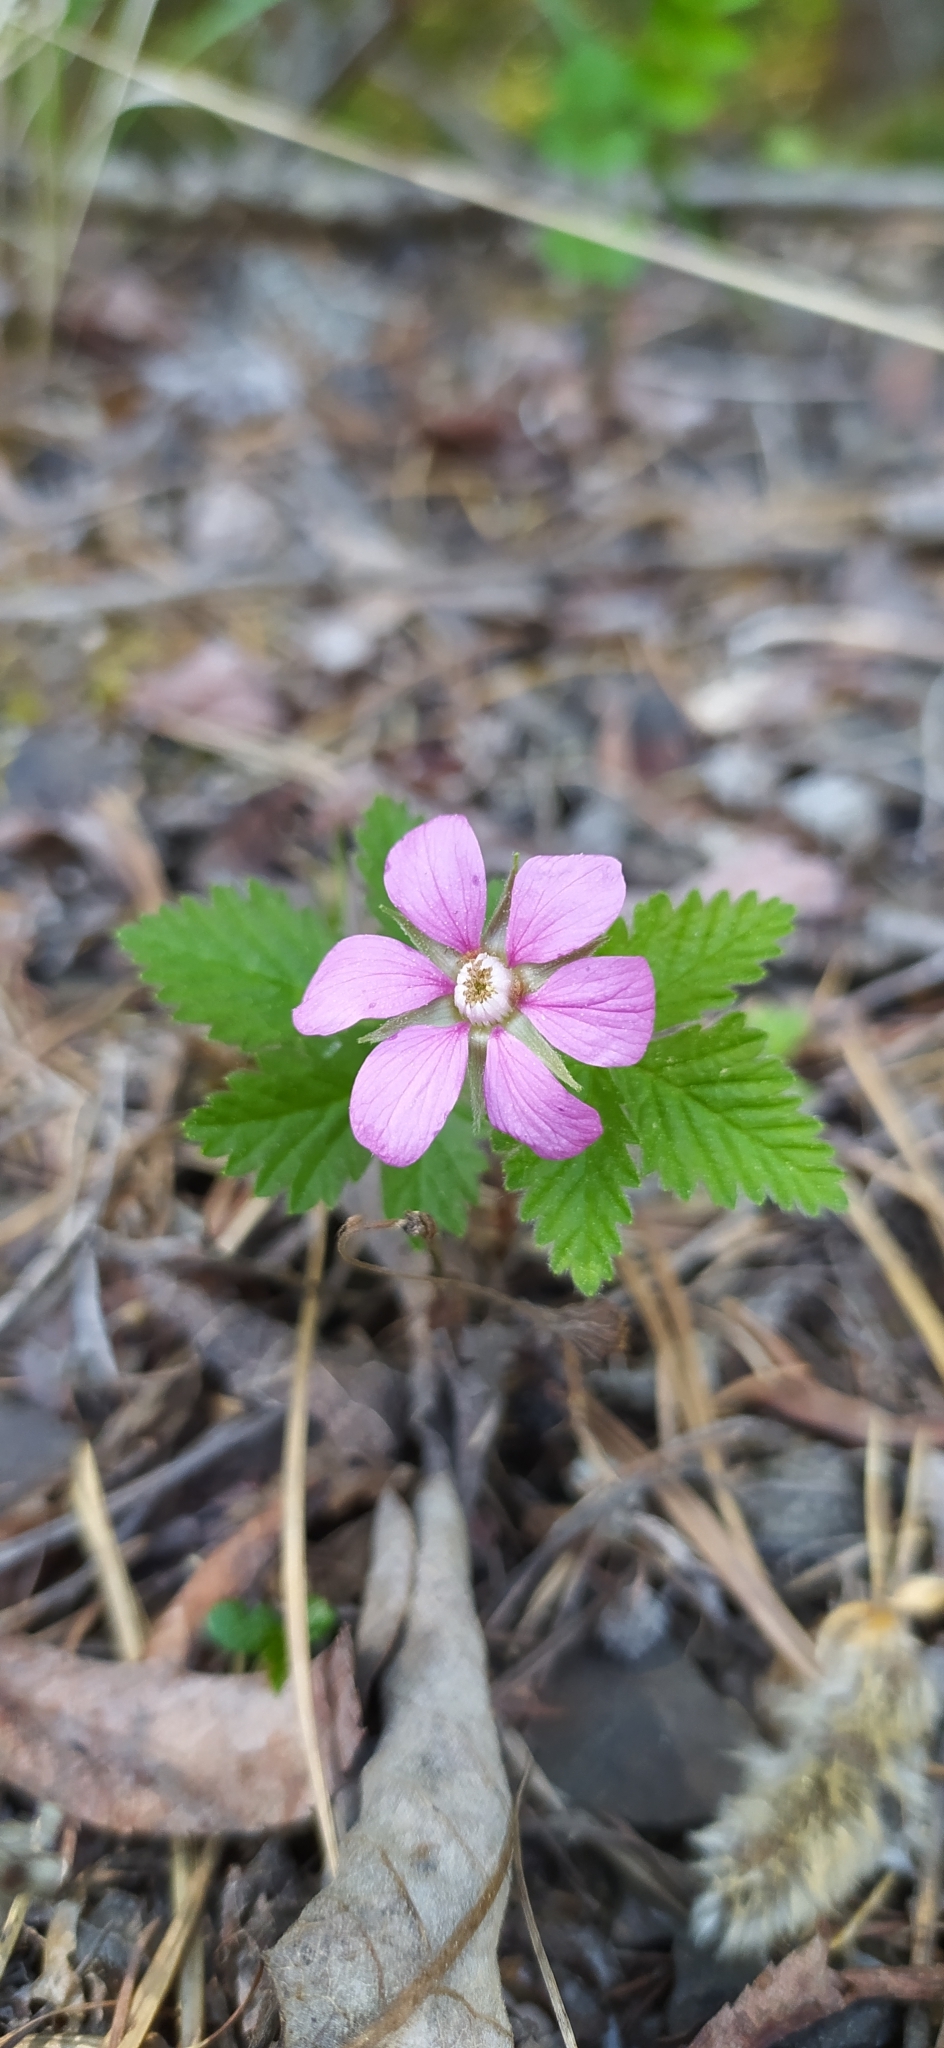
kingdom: Plantae
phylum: Tracheophyta
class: Magnoliopsida
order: Rosales
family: Rosaceae
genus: Rubus
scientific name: Rubus arcticus
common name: Arctic bramble
